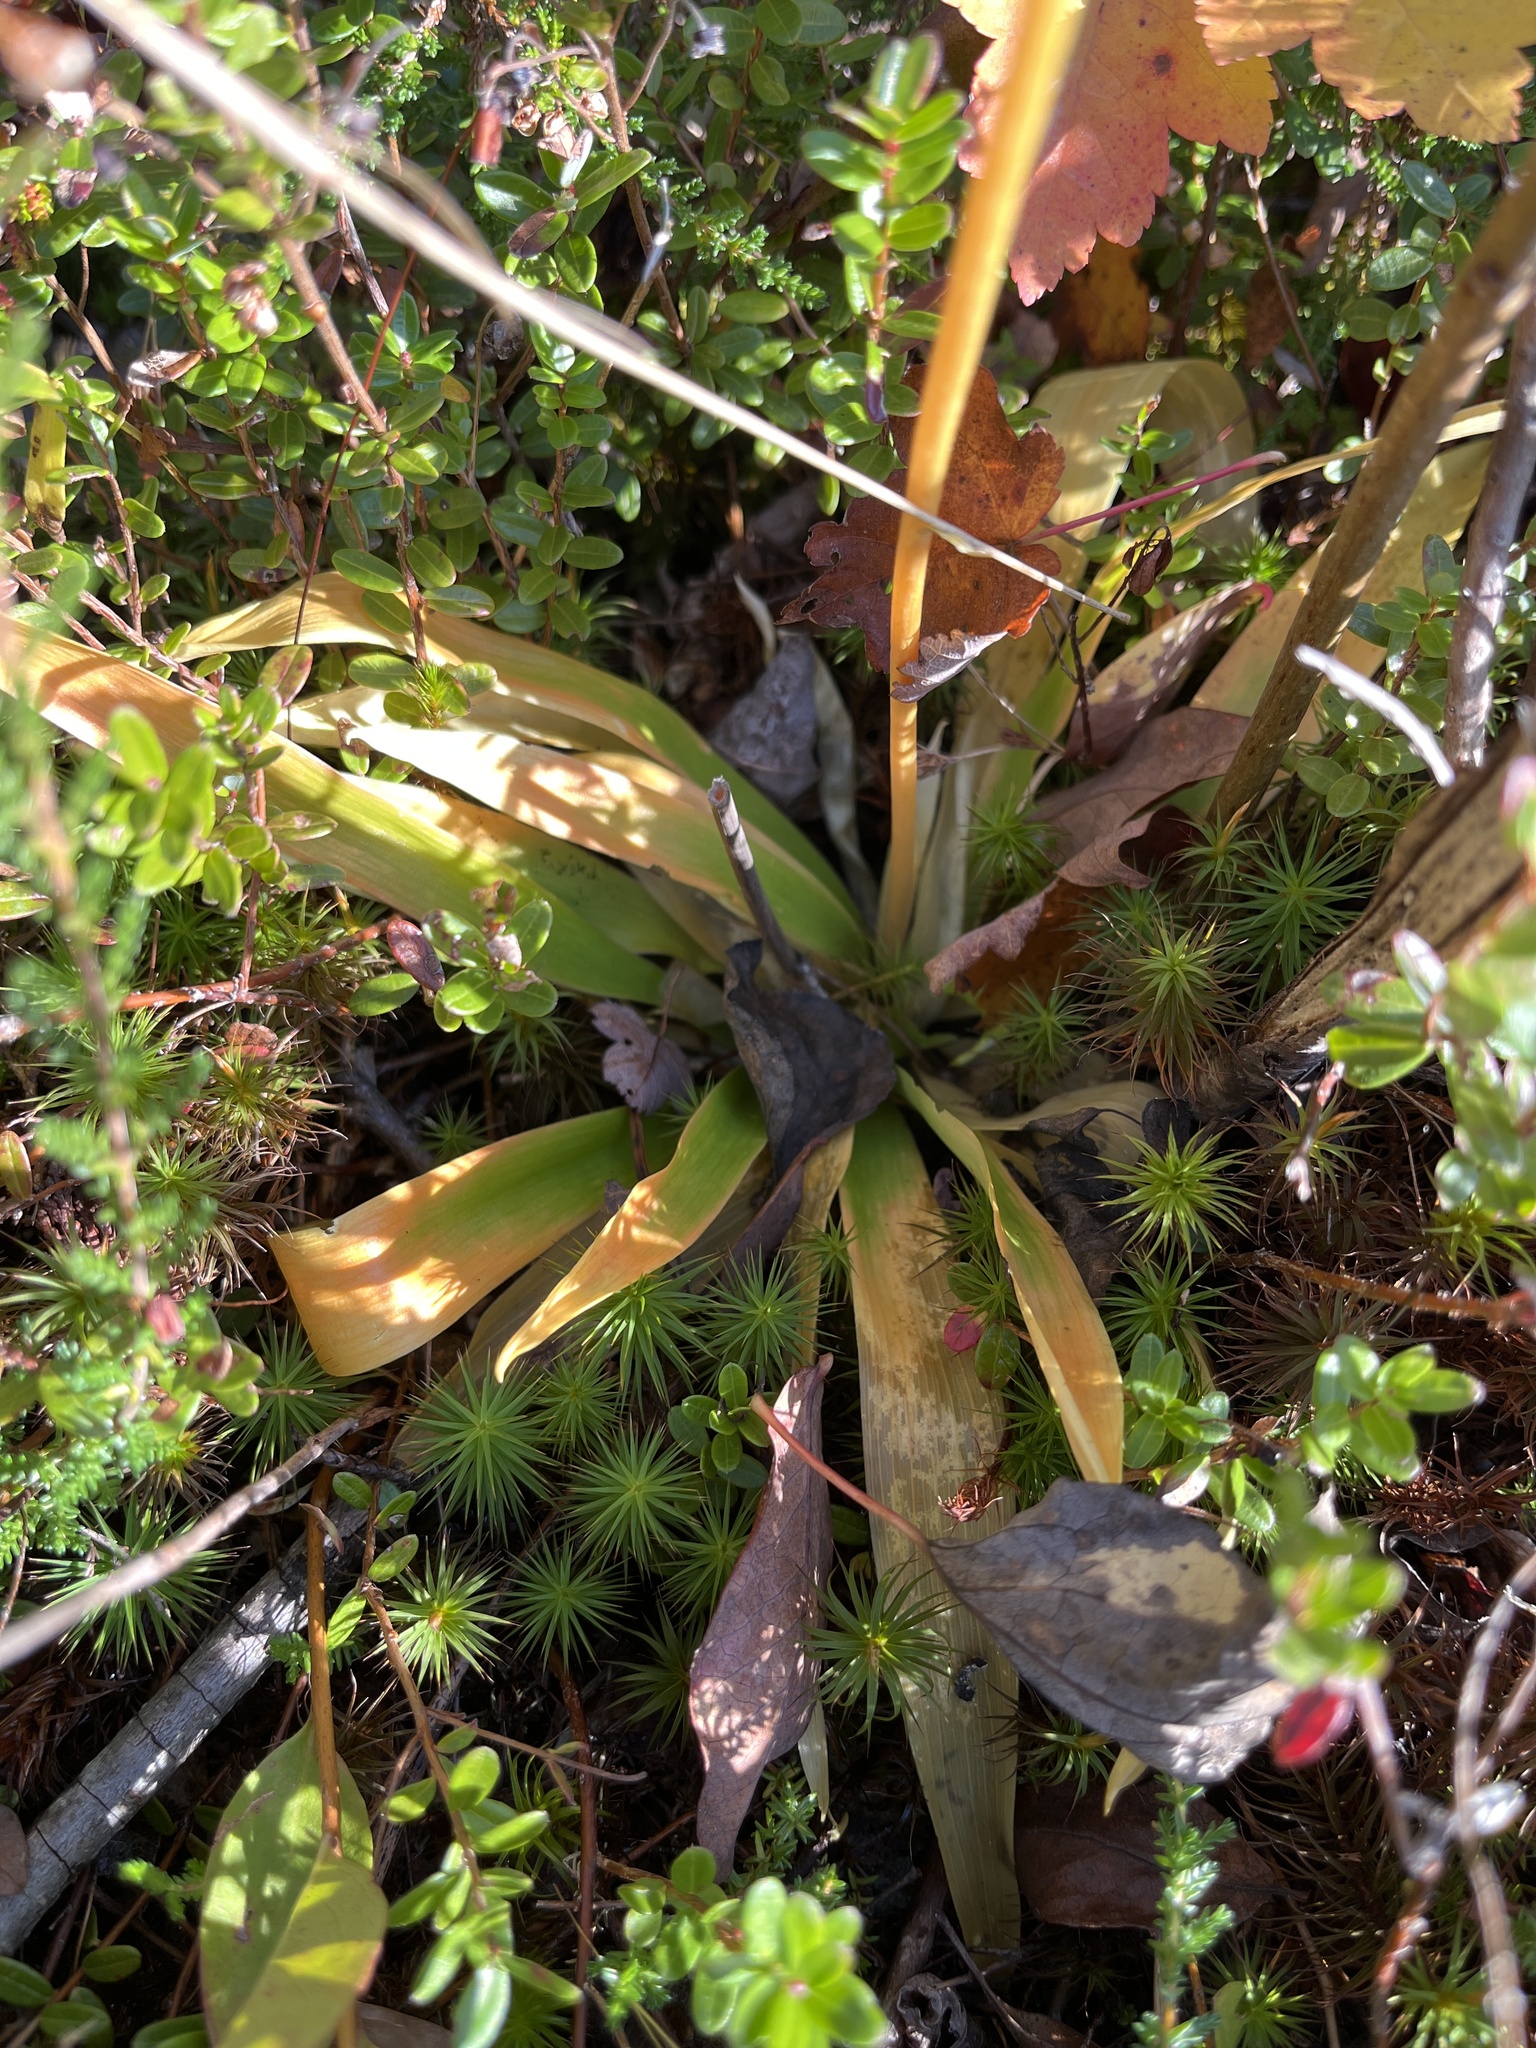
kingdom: Plantae
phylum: Tracheophyta
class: Liliopsida
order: Dioscoreales
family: Nartheciaceae
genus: Aletris
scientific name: Aletris farinosa
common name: Colicroot
